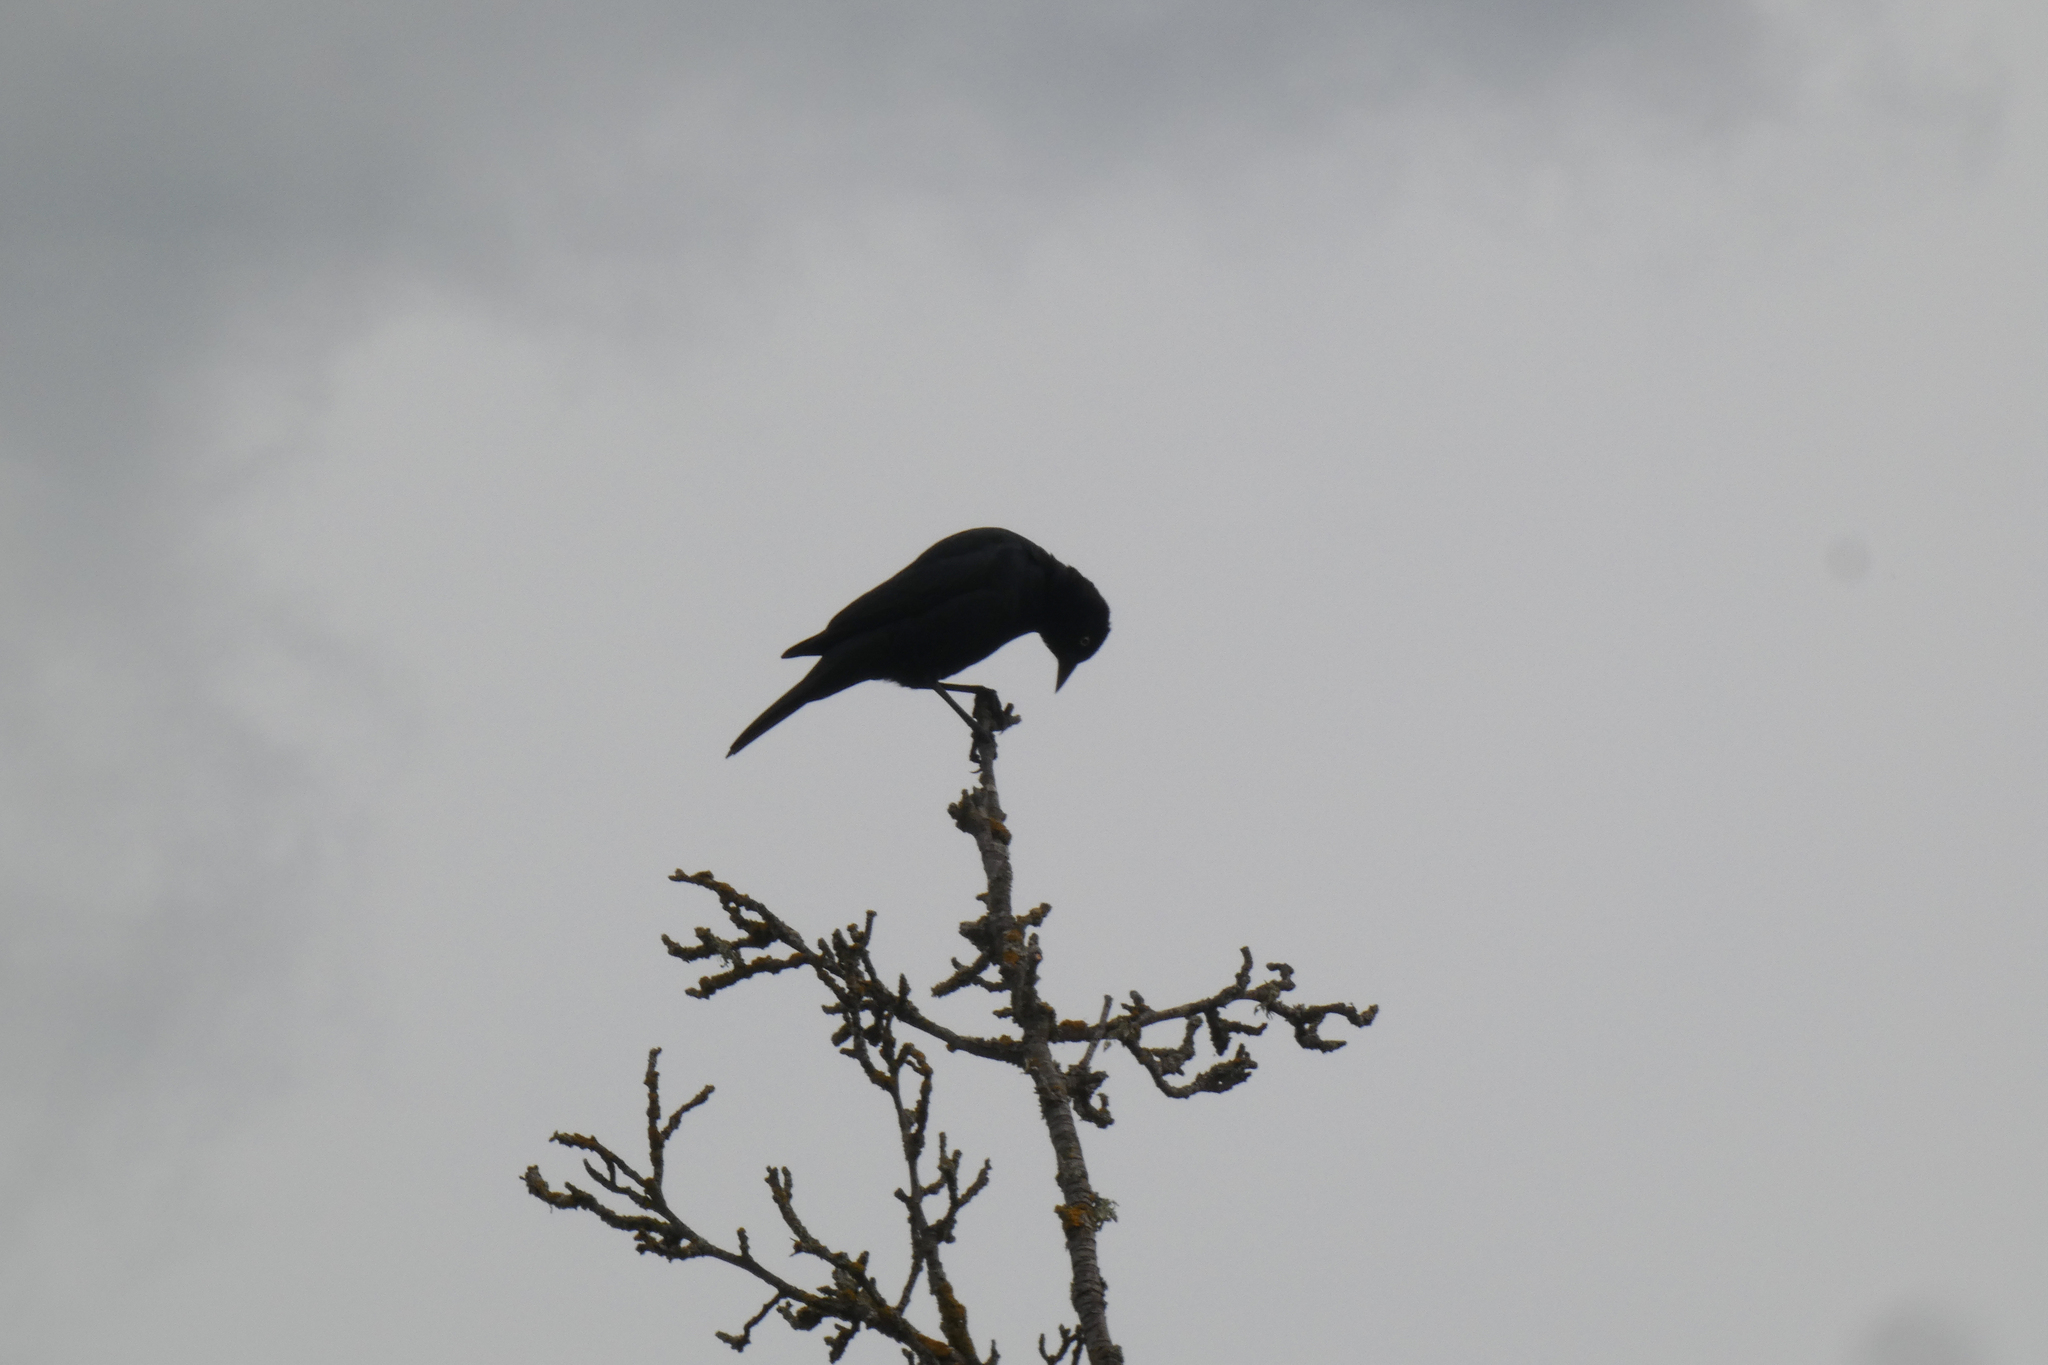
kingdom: Animalia
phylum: Chordata
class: Aves
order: Passeriformes
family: Icteridae
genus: Euphagus
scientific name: Euphagus cyanocephalus
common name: Brewer's blackbird
